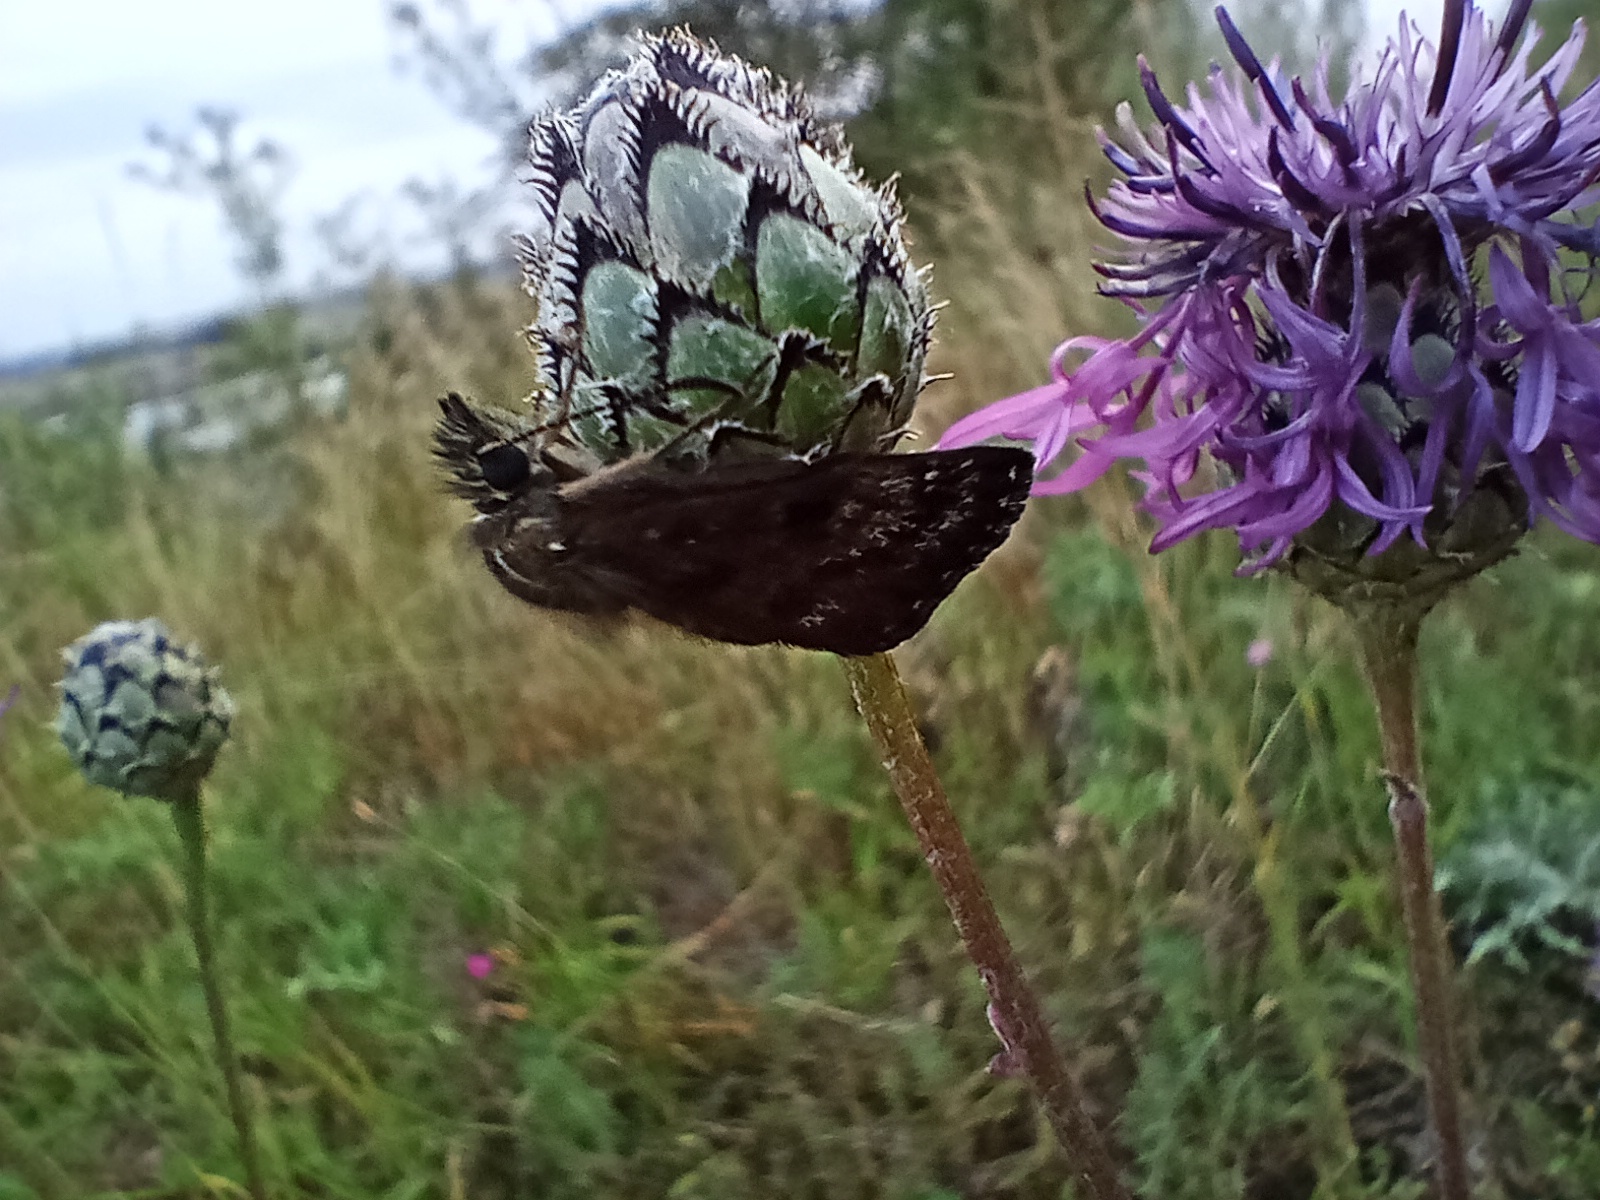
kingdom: Animalia
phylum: Arthropoda
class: Insecta
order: Lepidoptera
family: Hesperiidae
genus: Erynnis
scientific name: Erynnis tages
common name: Dingy skipper
